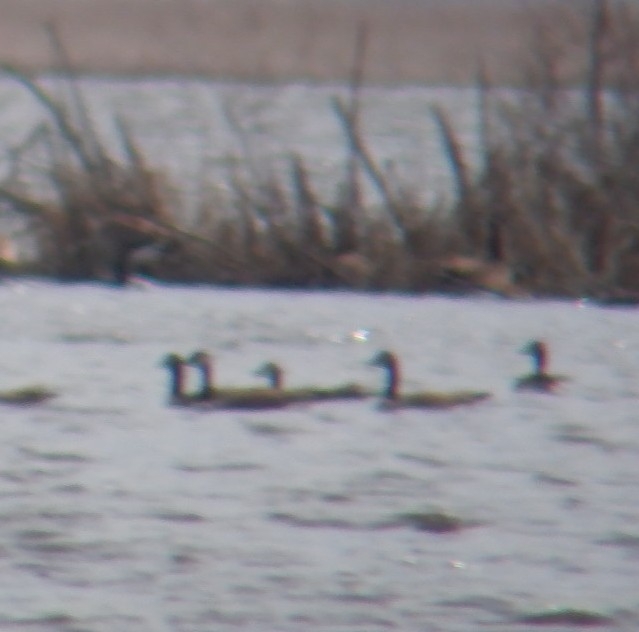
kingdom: Animalia
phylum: Chordata
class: Aves
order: Anseriformes
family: Anatidae
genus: Branta
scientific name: Branta canadensis
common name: Canada goose
